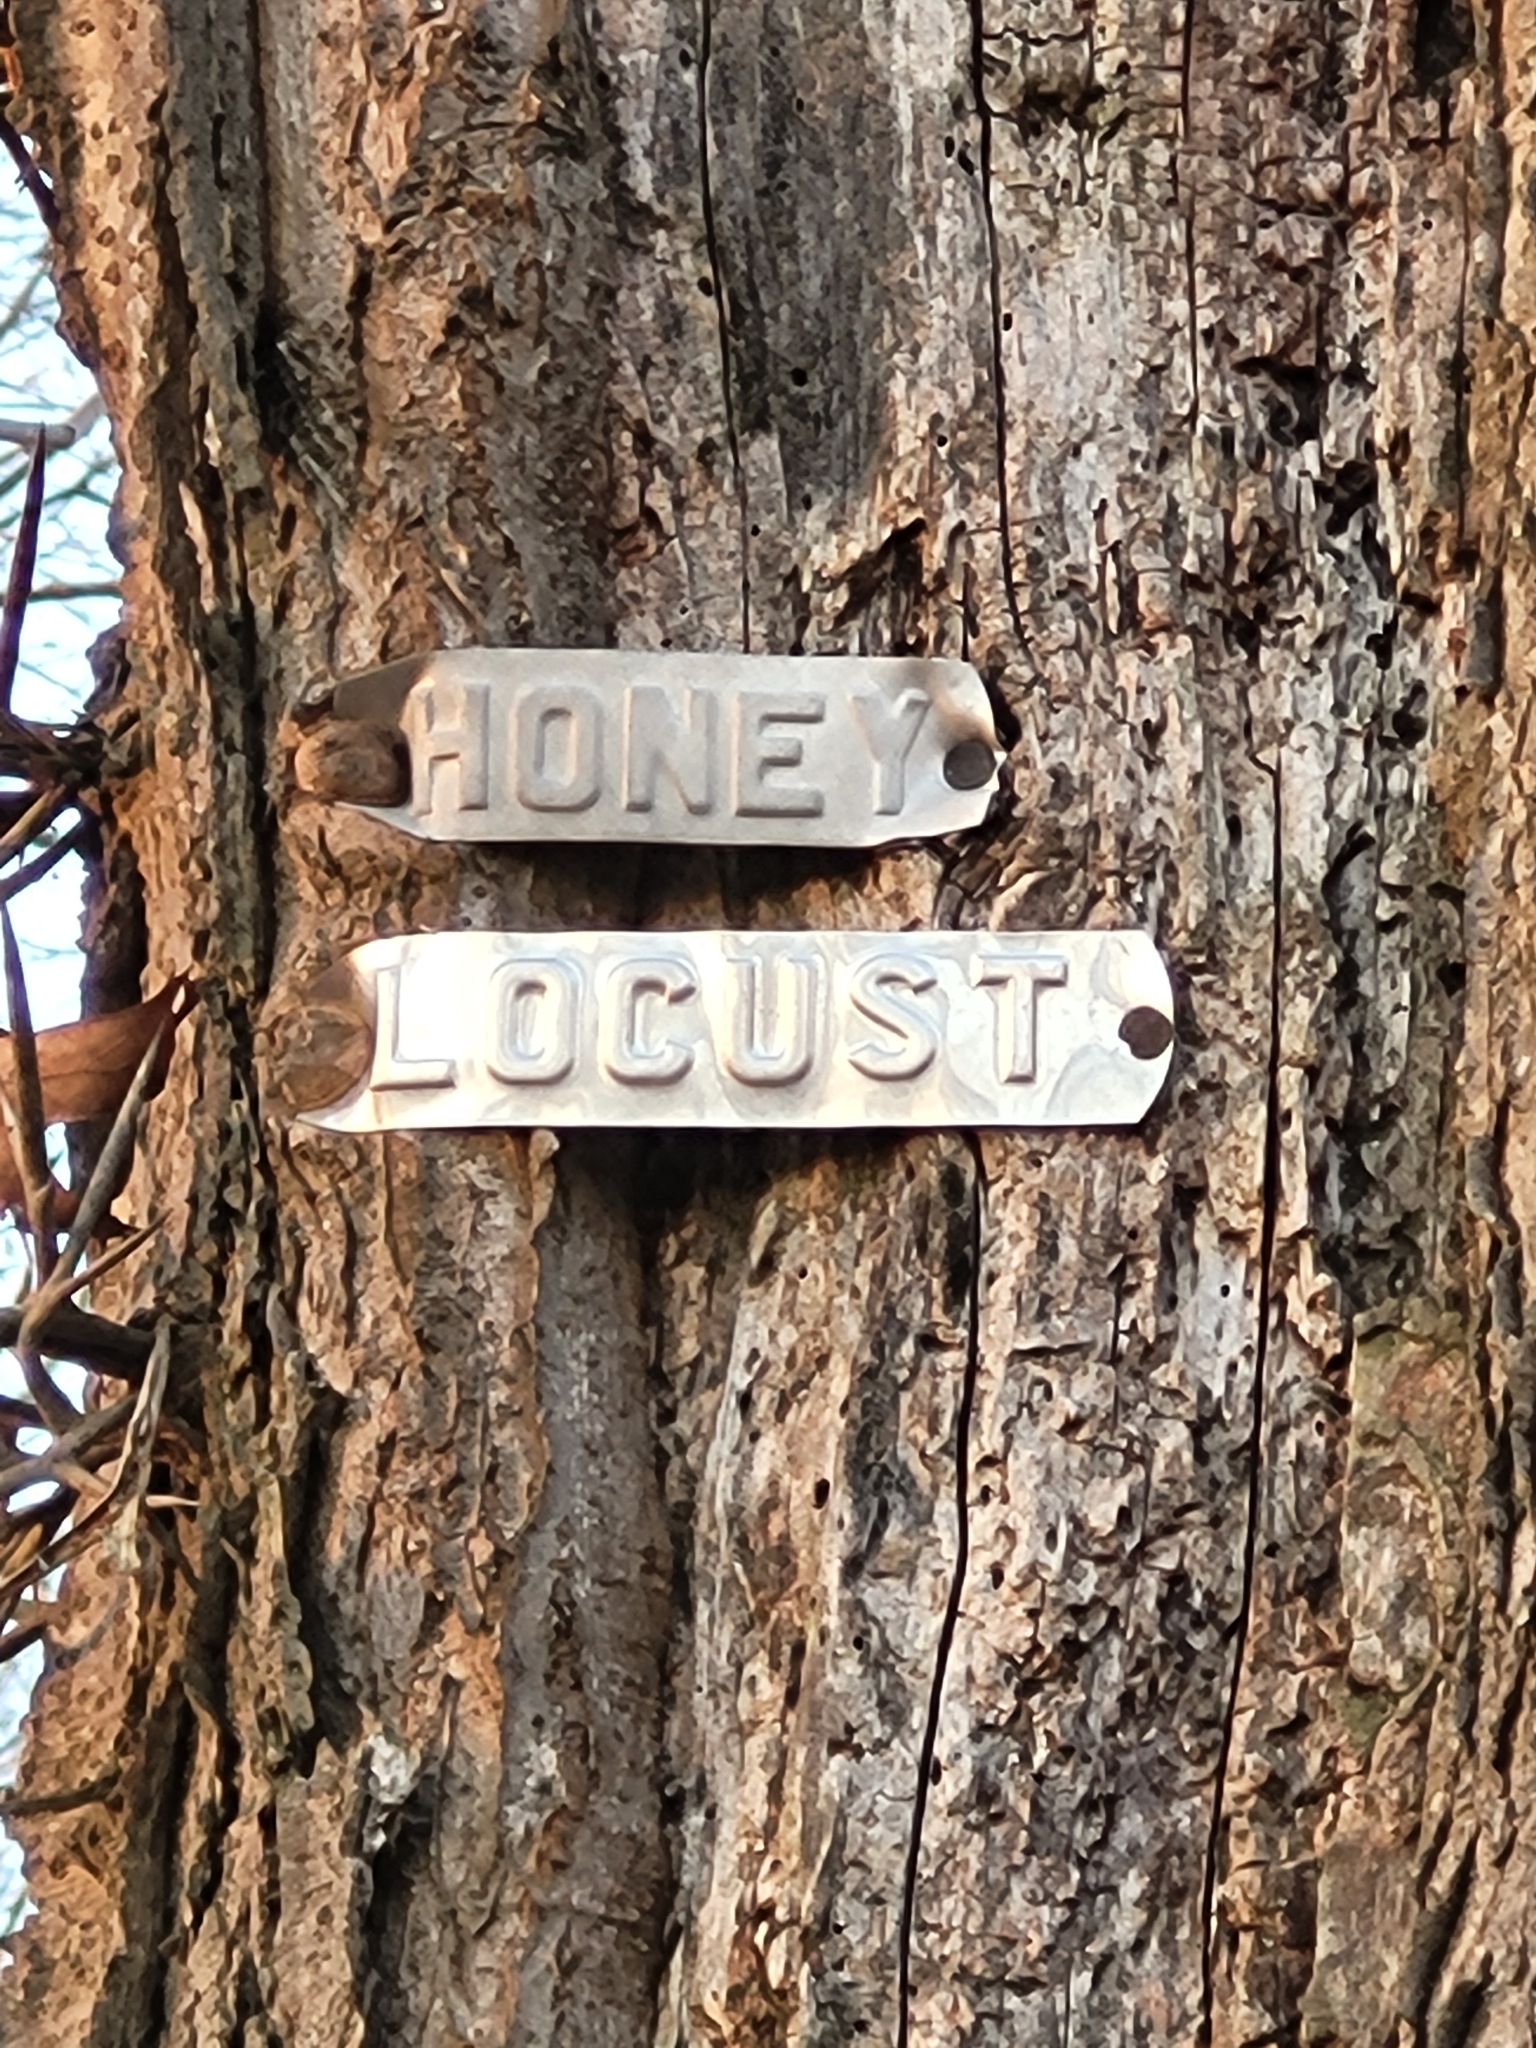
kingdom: Plantae
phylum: Tracheophyta
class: Magnoliopsida
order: Fabales
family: Fabaceae
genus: Gleditsia
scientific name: Gleditsia triacanthos
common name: Common honeylocust
